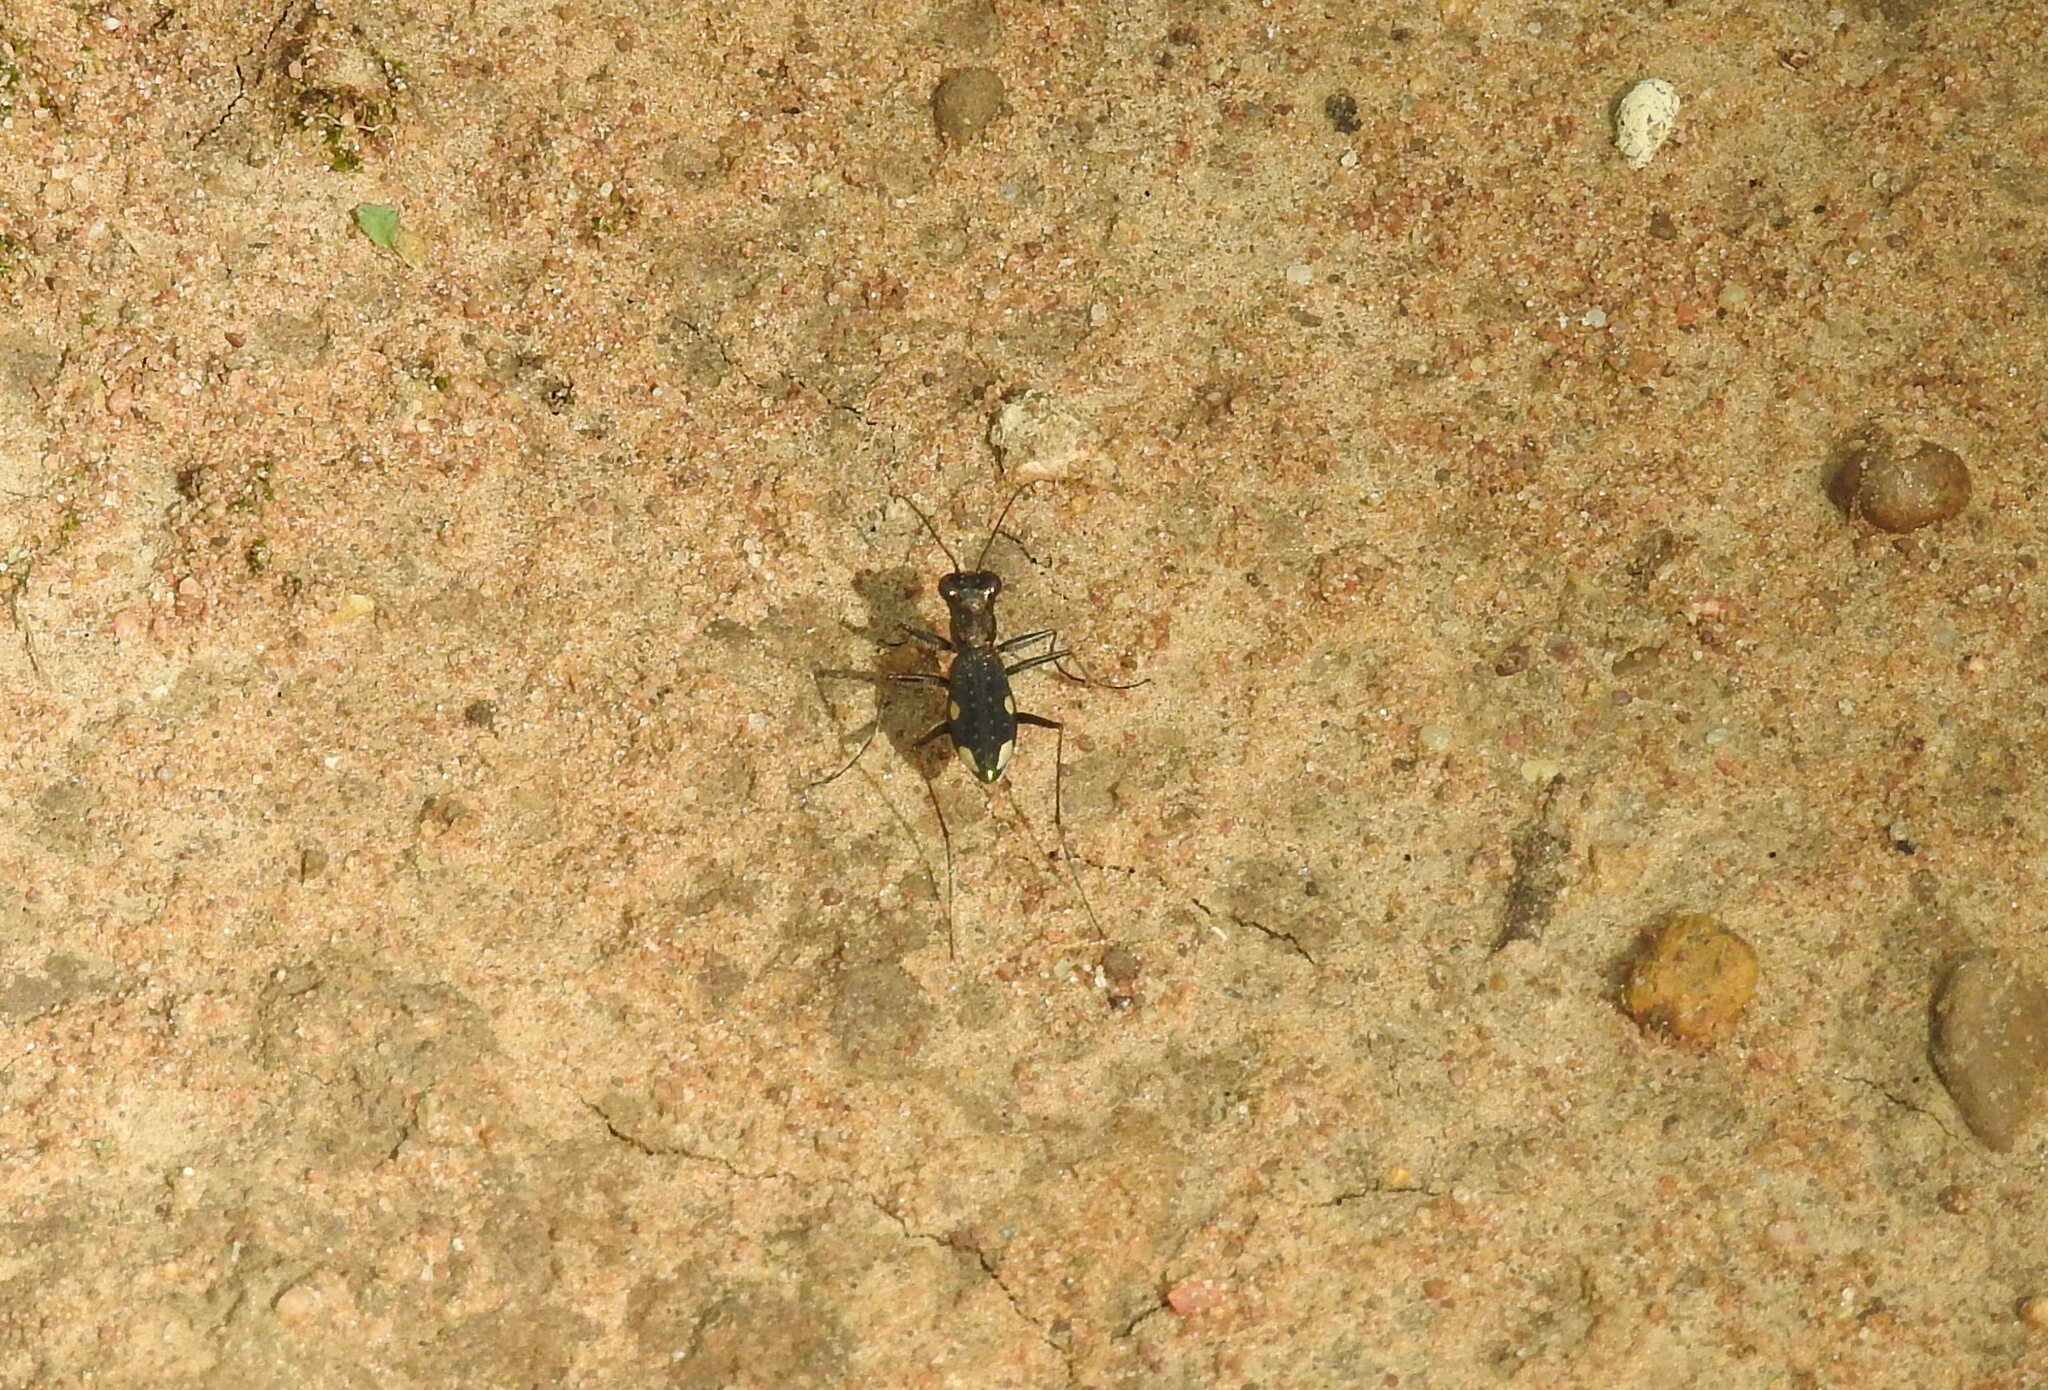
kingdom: Animalia
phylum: Arthropoda
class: Insecta
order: Coleoptera
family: Carabidae
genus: Jansenia
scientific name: Jansenia westermanni
